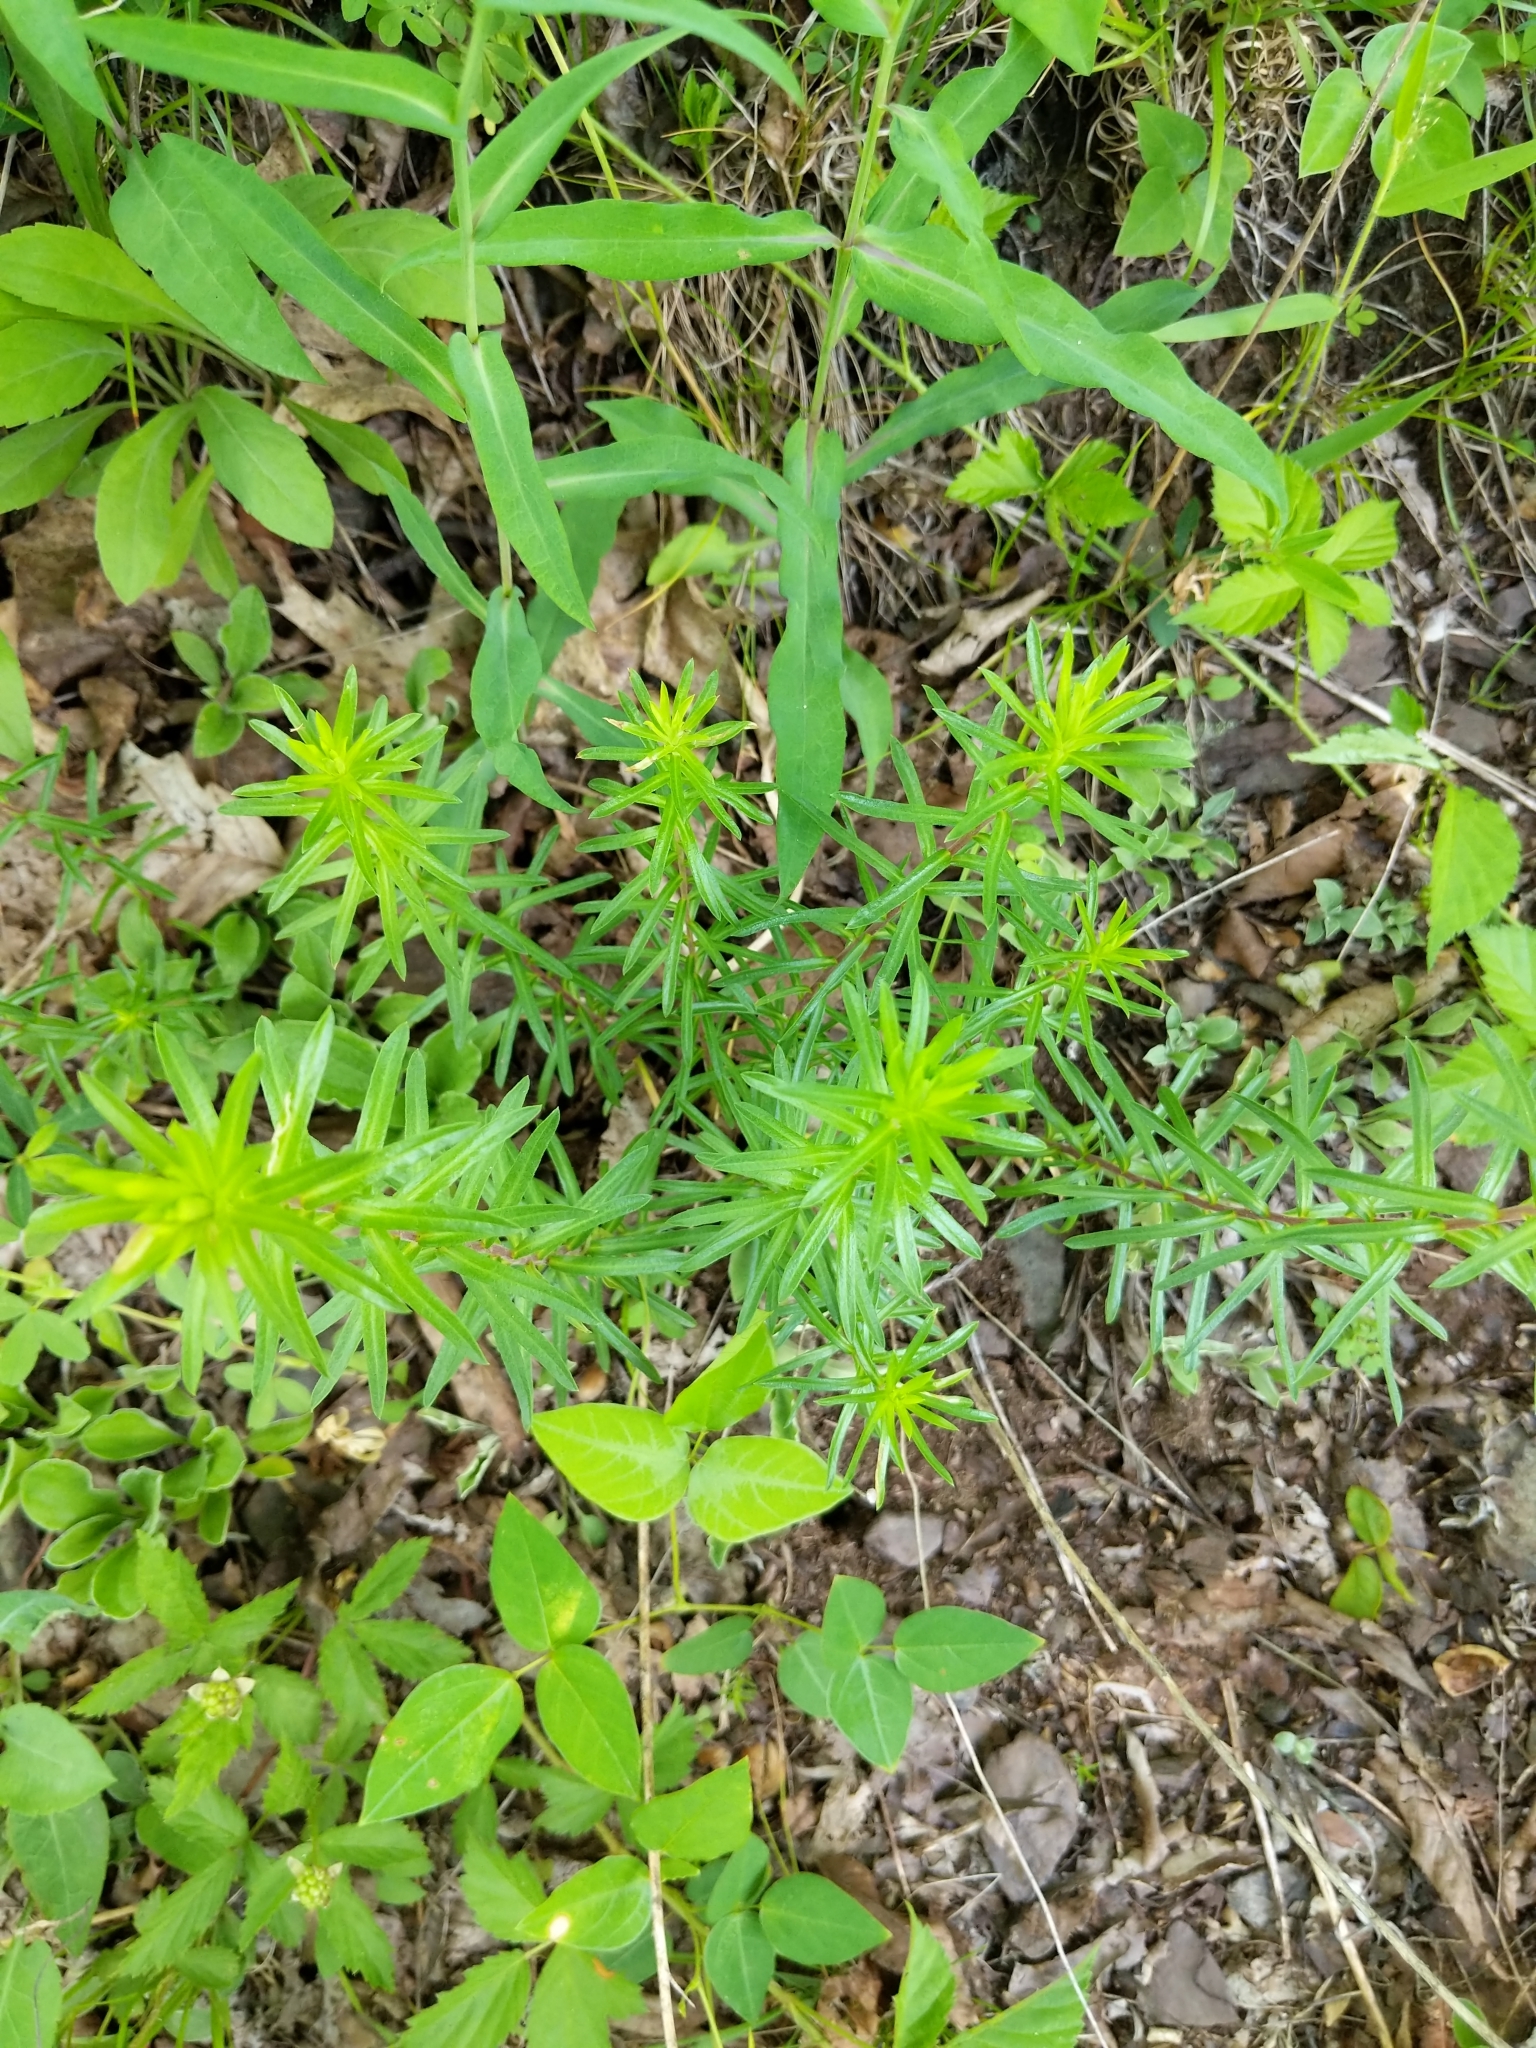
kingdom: Plantae
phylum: Tracheophyta
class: Magnoliopsida
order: Asterales
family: Asteraceae
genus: Ionactis
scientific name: Ionactis linariifolia
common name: Flax-leaf aster
